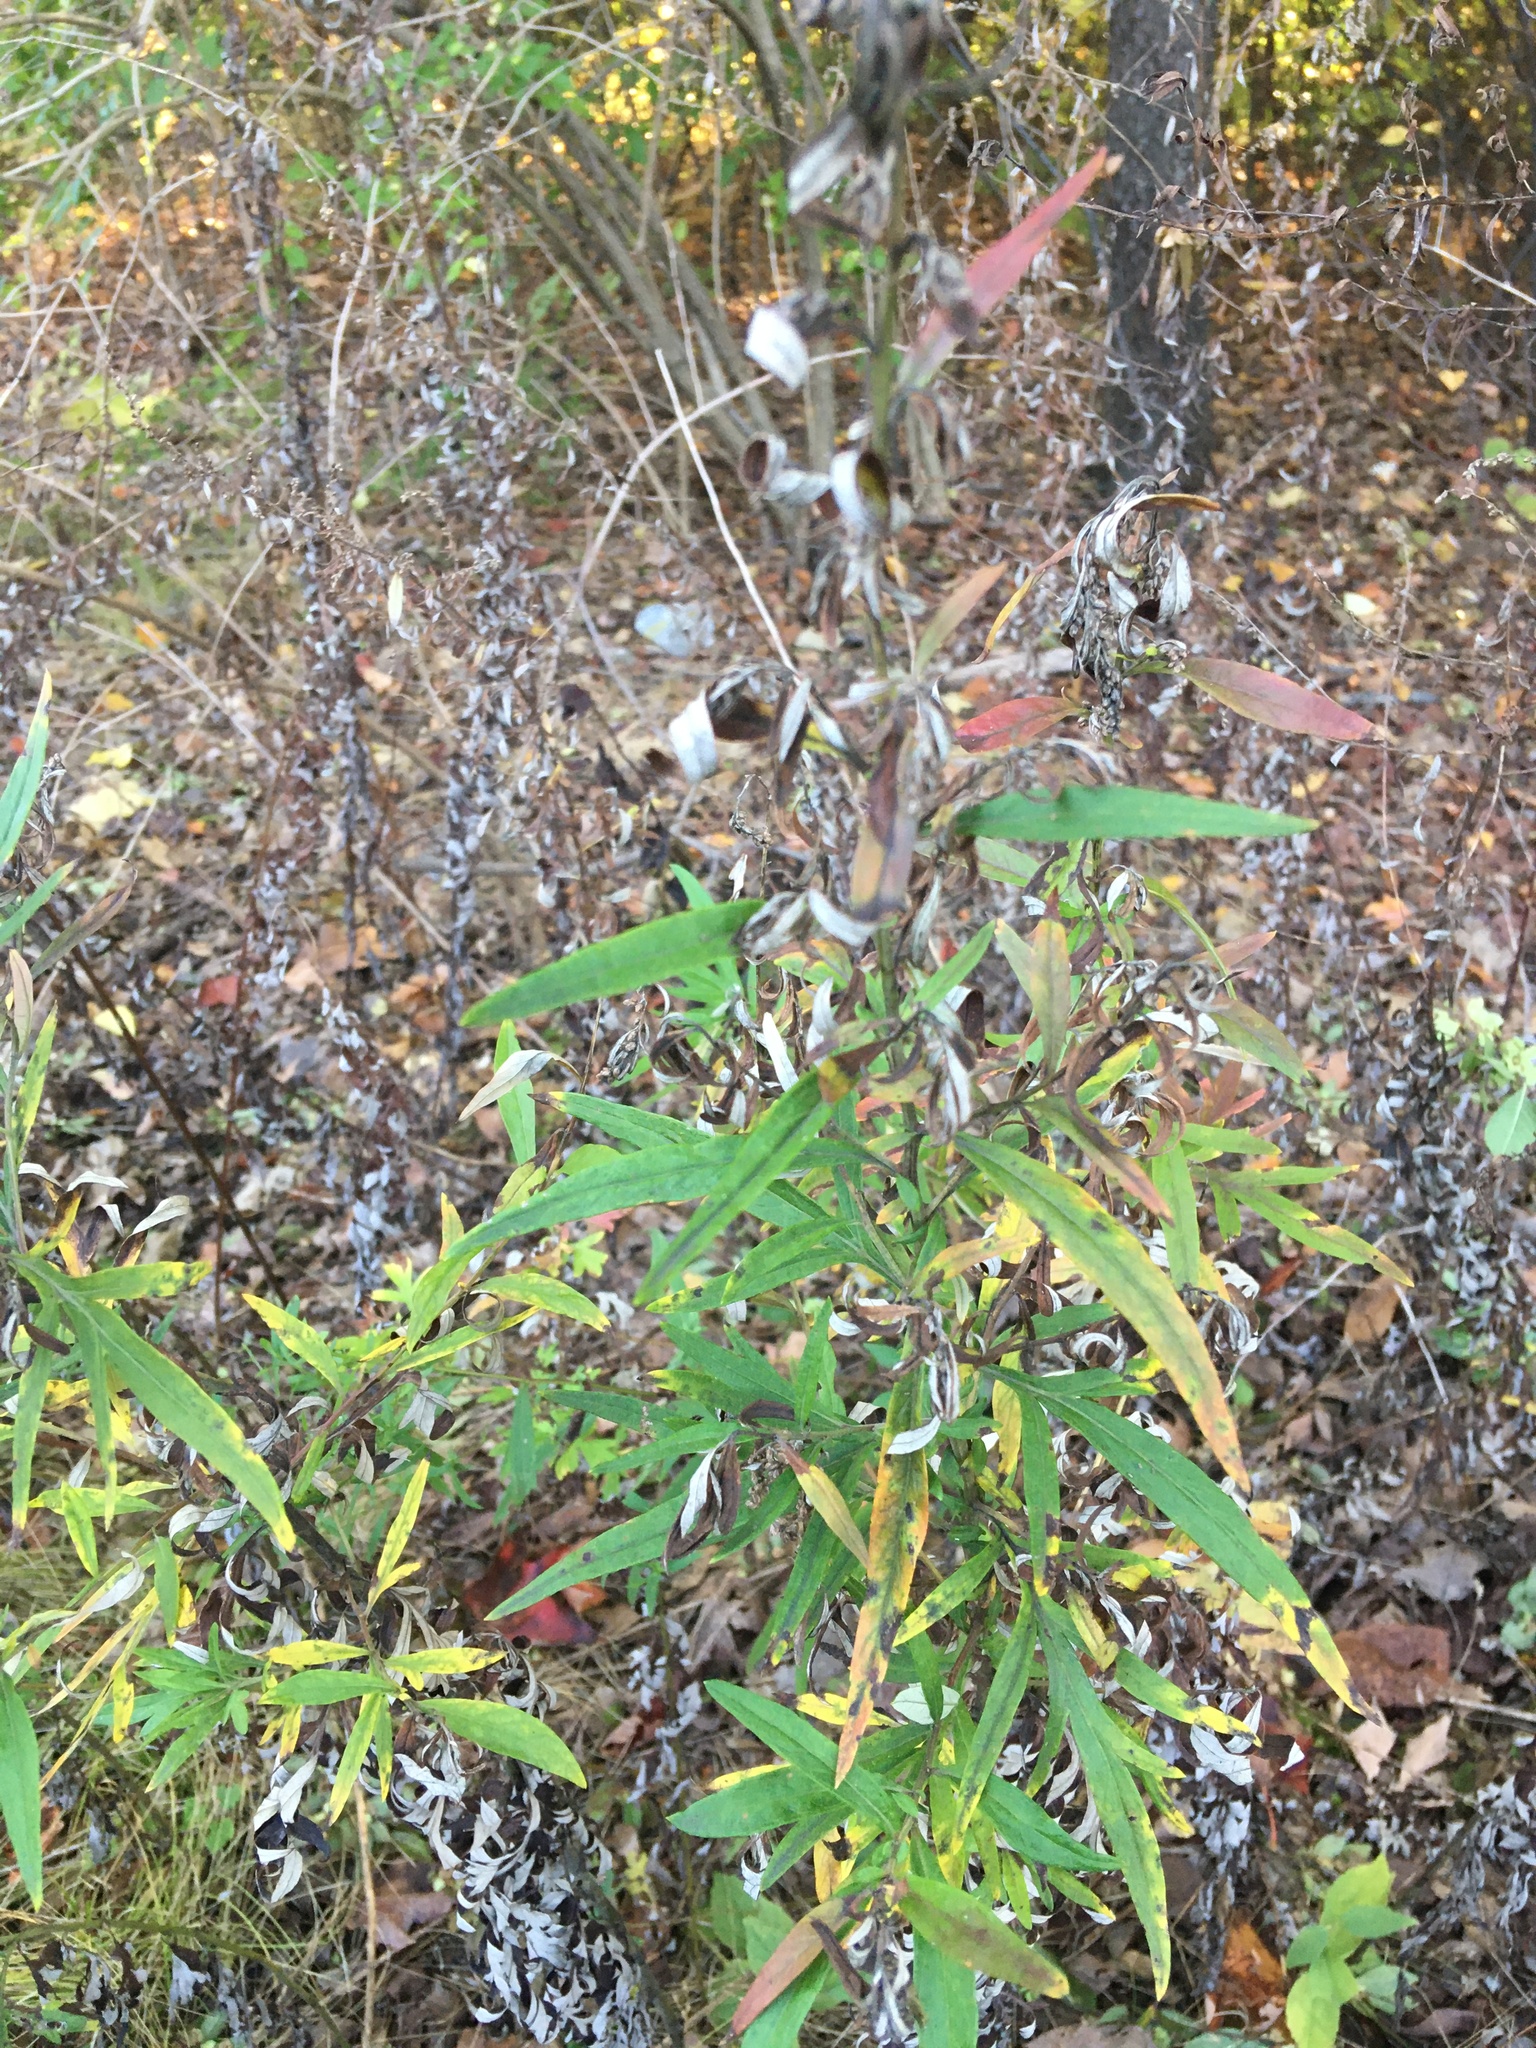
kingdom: Plantae
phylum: Tracheophyta
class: Magnoliopsida
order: Asterales
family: Asteraceae
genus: Artemisia
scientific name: Artemisia vulgaris
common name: Mugwort
